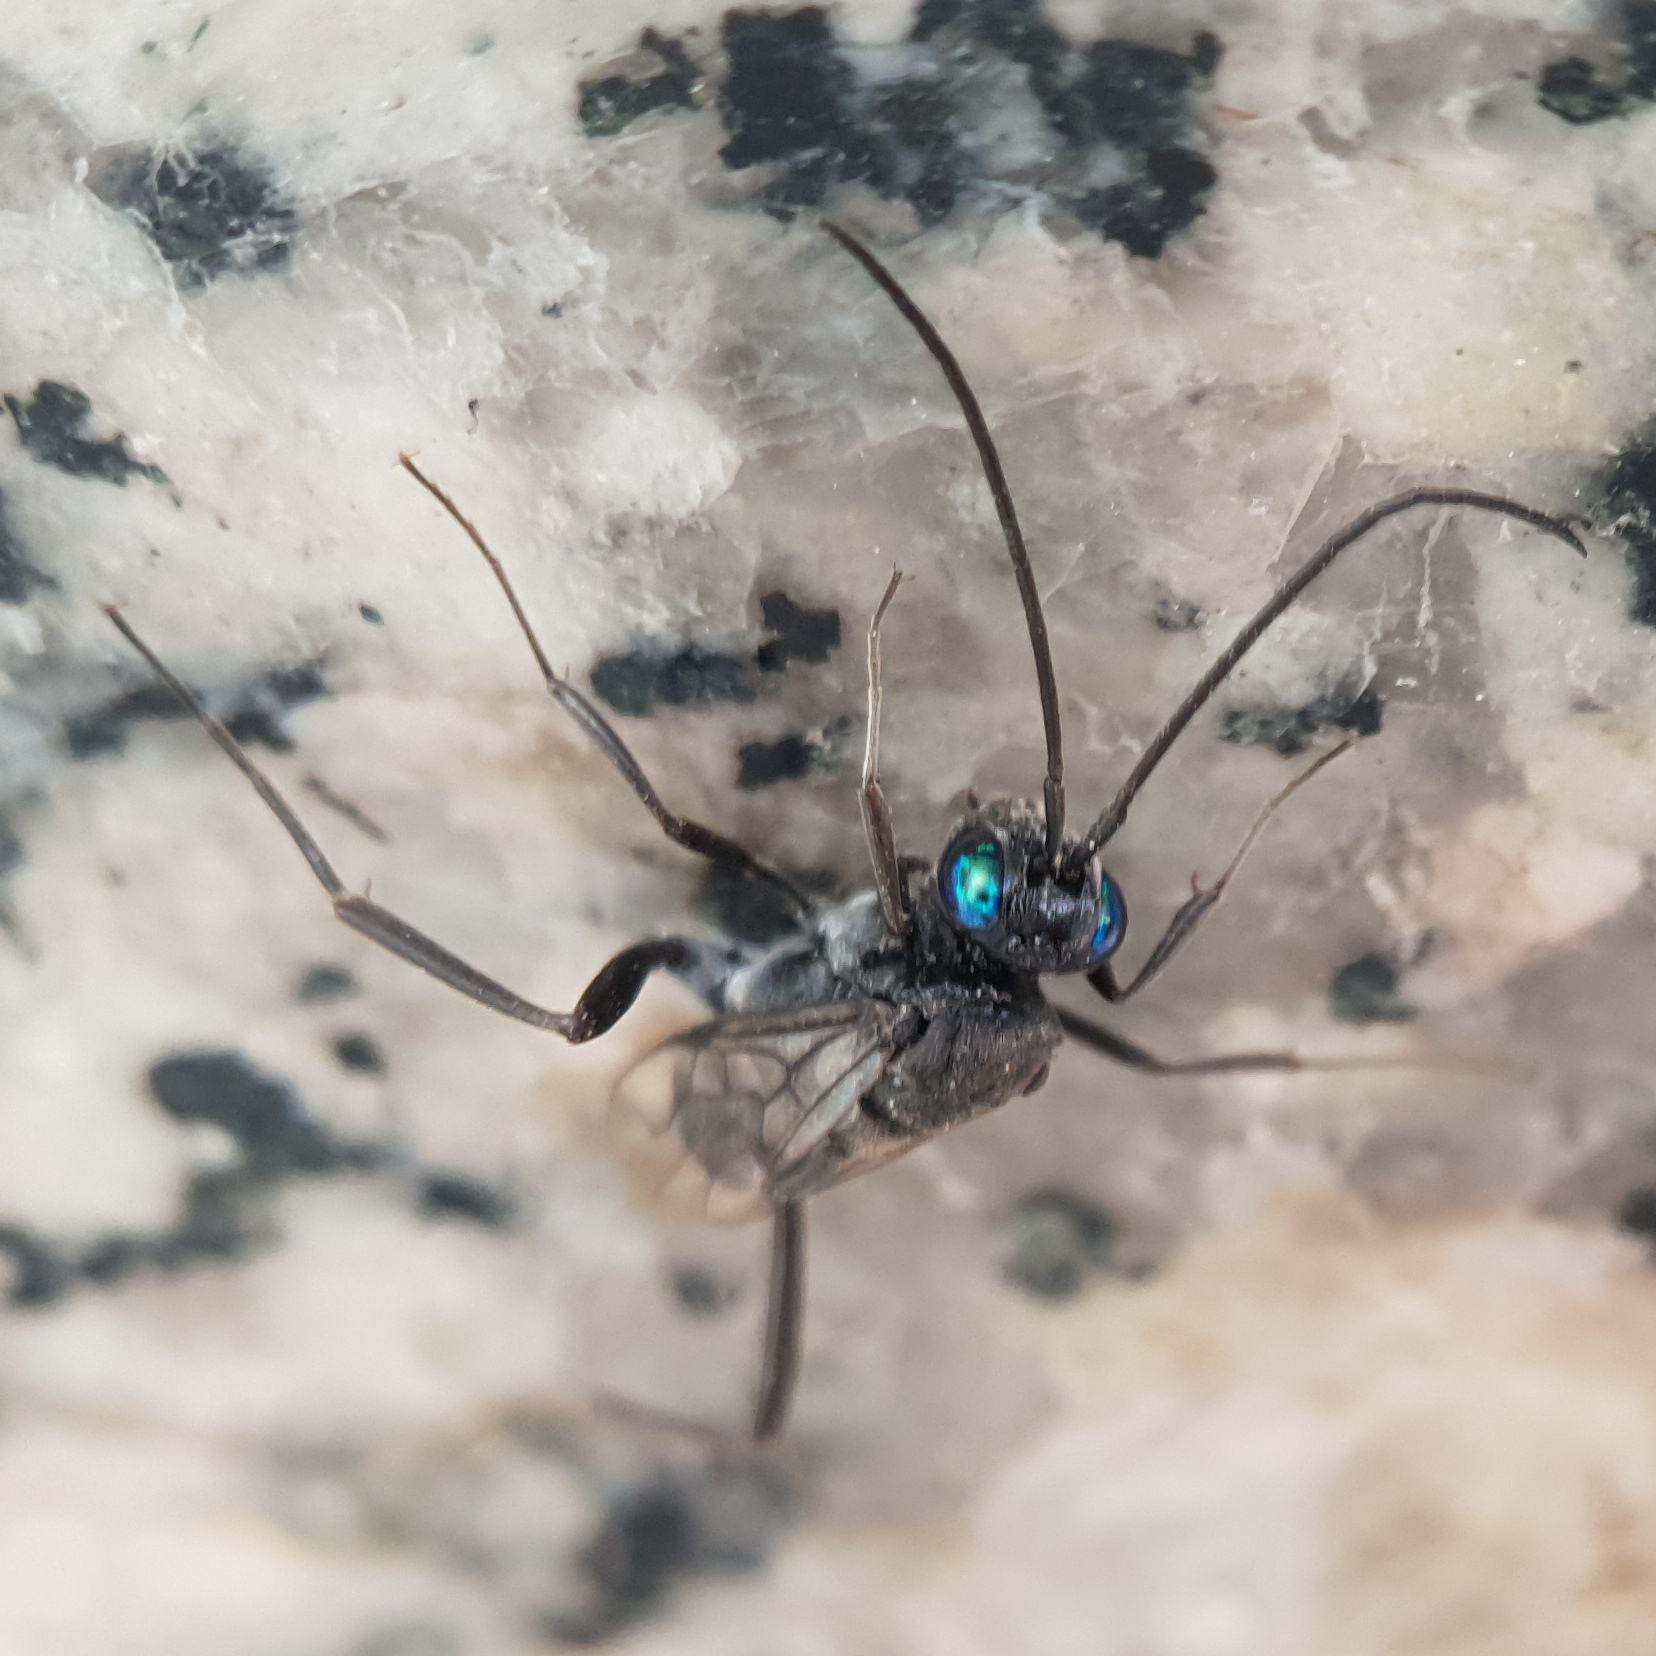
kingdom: Animalia
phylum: Arthropoda
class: Insecta
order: Hymenoptera
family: Evaniidae
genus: Evania
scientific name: Evania appendigaster
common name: Ensign wasp
